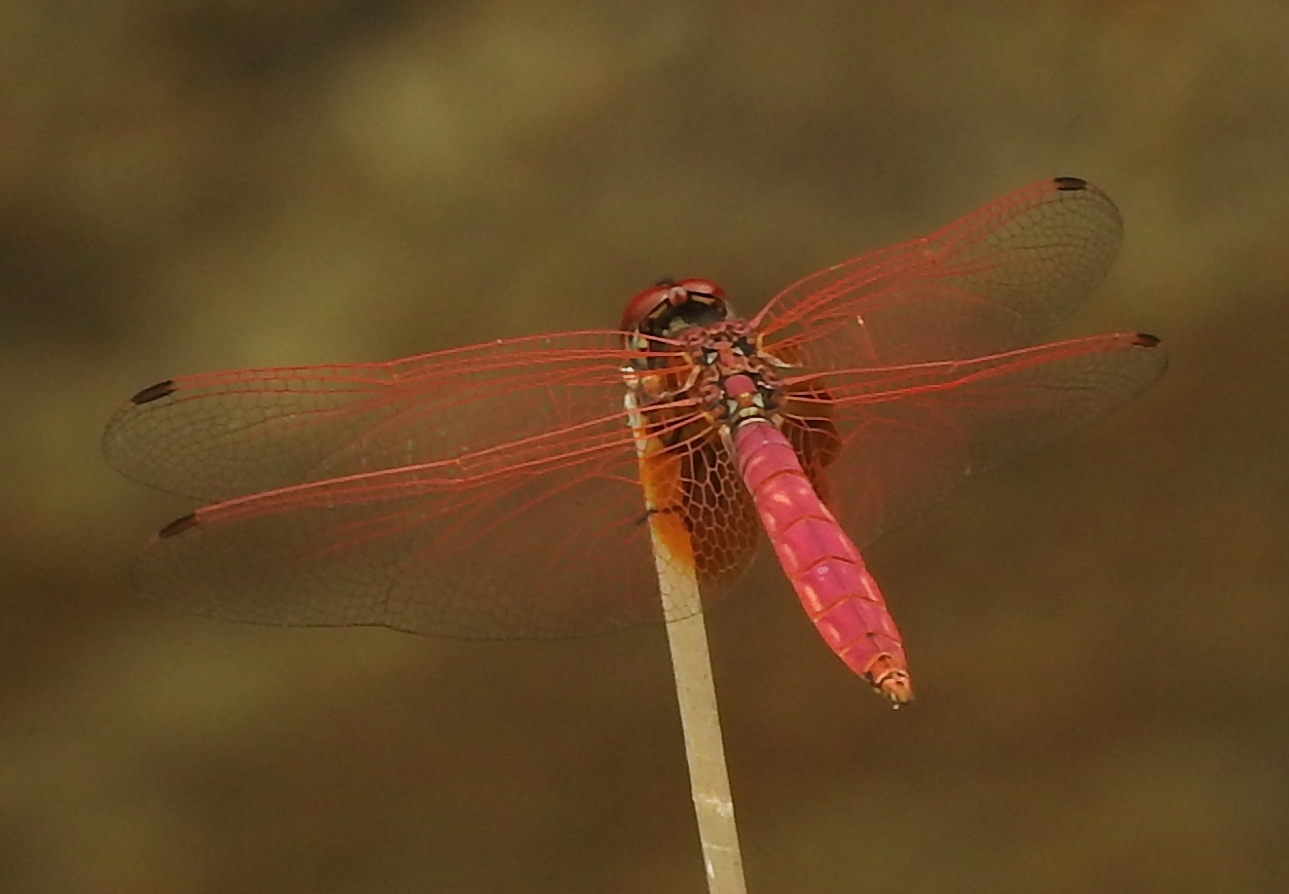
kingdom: Animalia
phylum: Arthropoda
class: Insecta
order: Odonata
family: Libellulidae
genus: Trithemis
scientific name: Trithemis aurora
